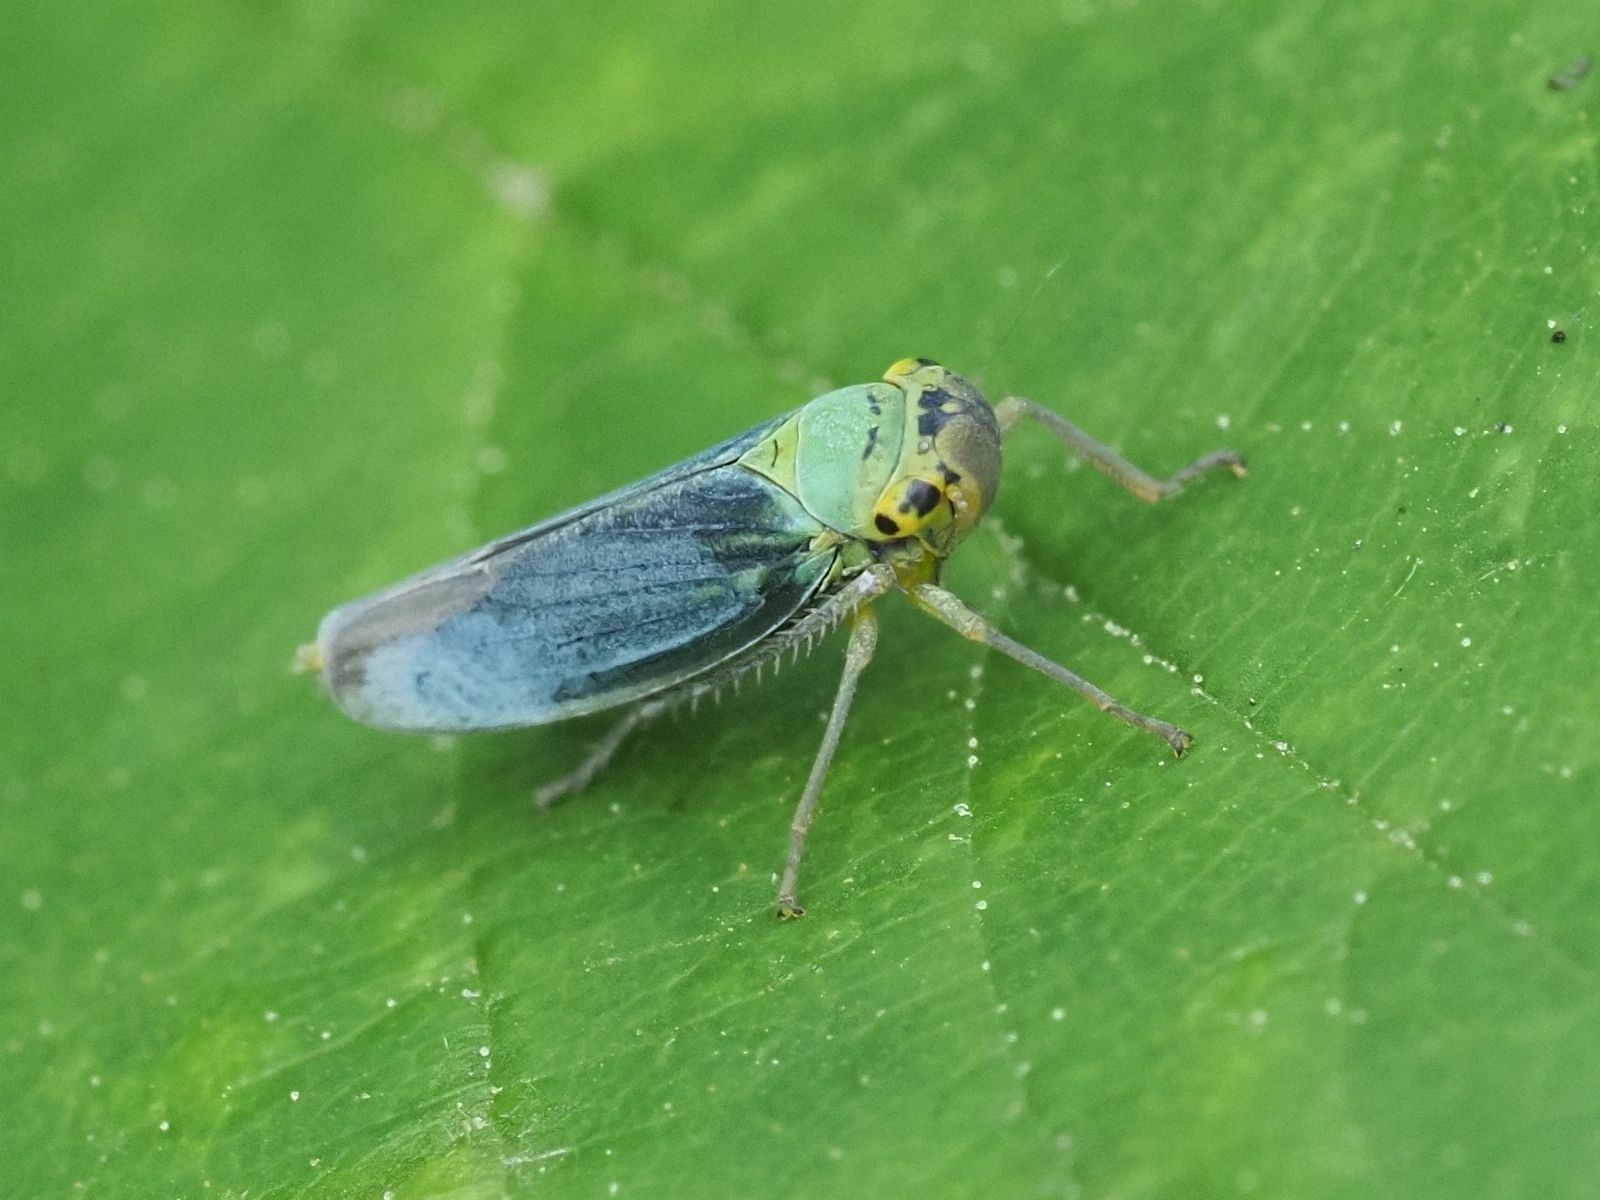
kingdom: Animalia
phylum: Arthropoda
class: Insecta
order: Hemiptera
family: Cicadellidae
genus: Cicadella
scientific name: Cicadella viridis
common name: Leafhopper
